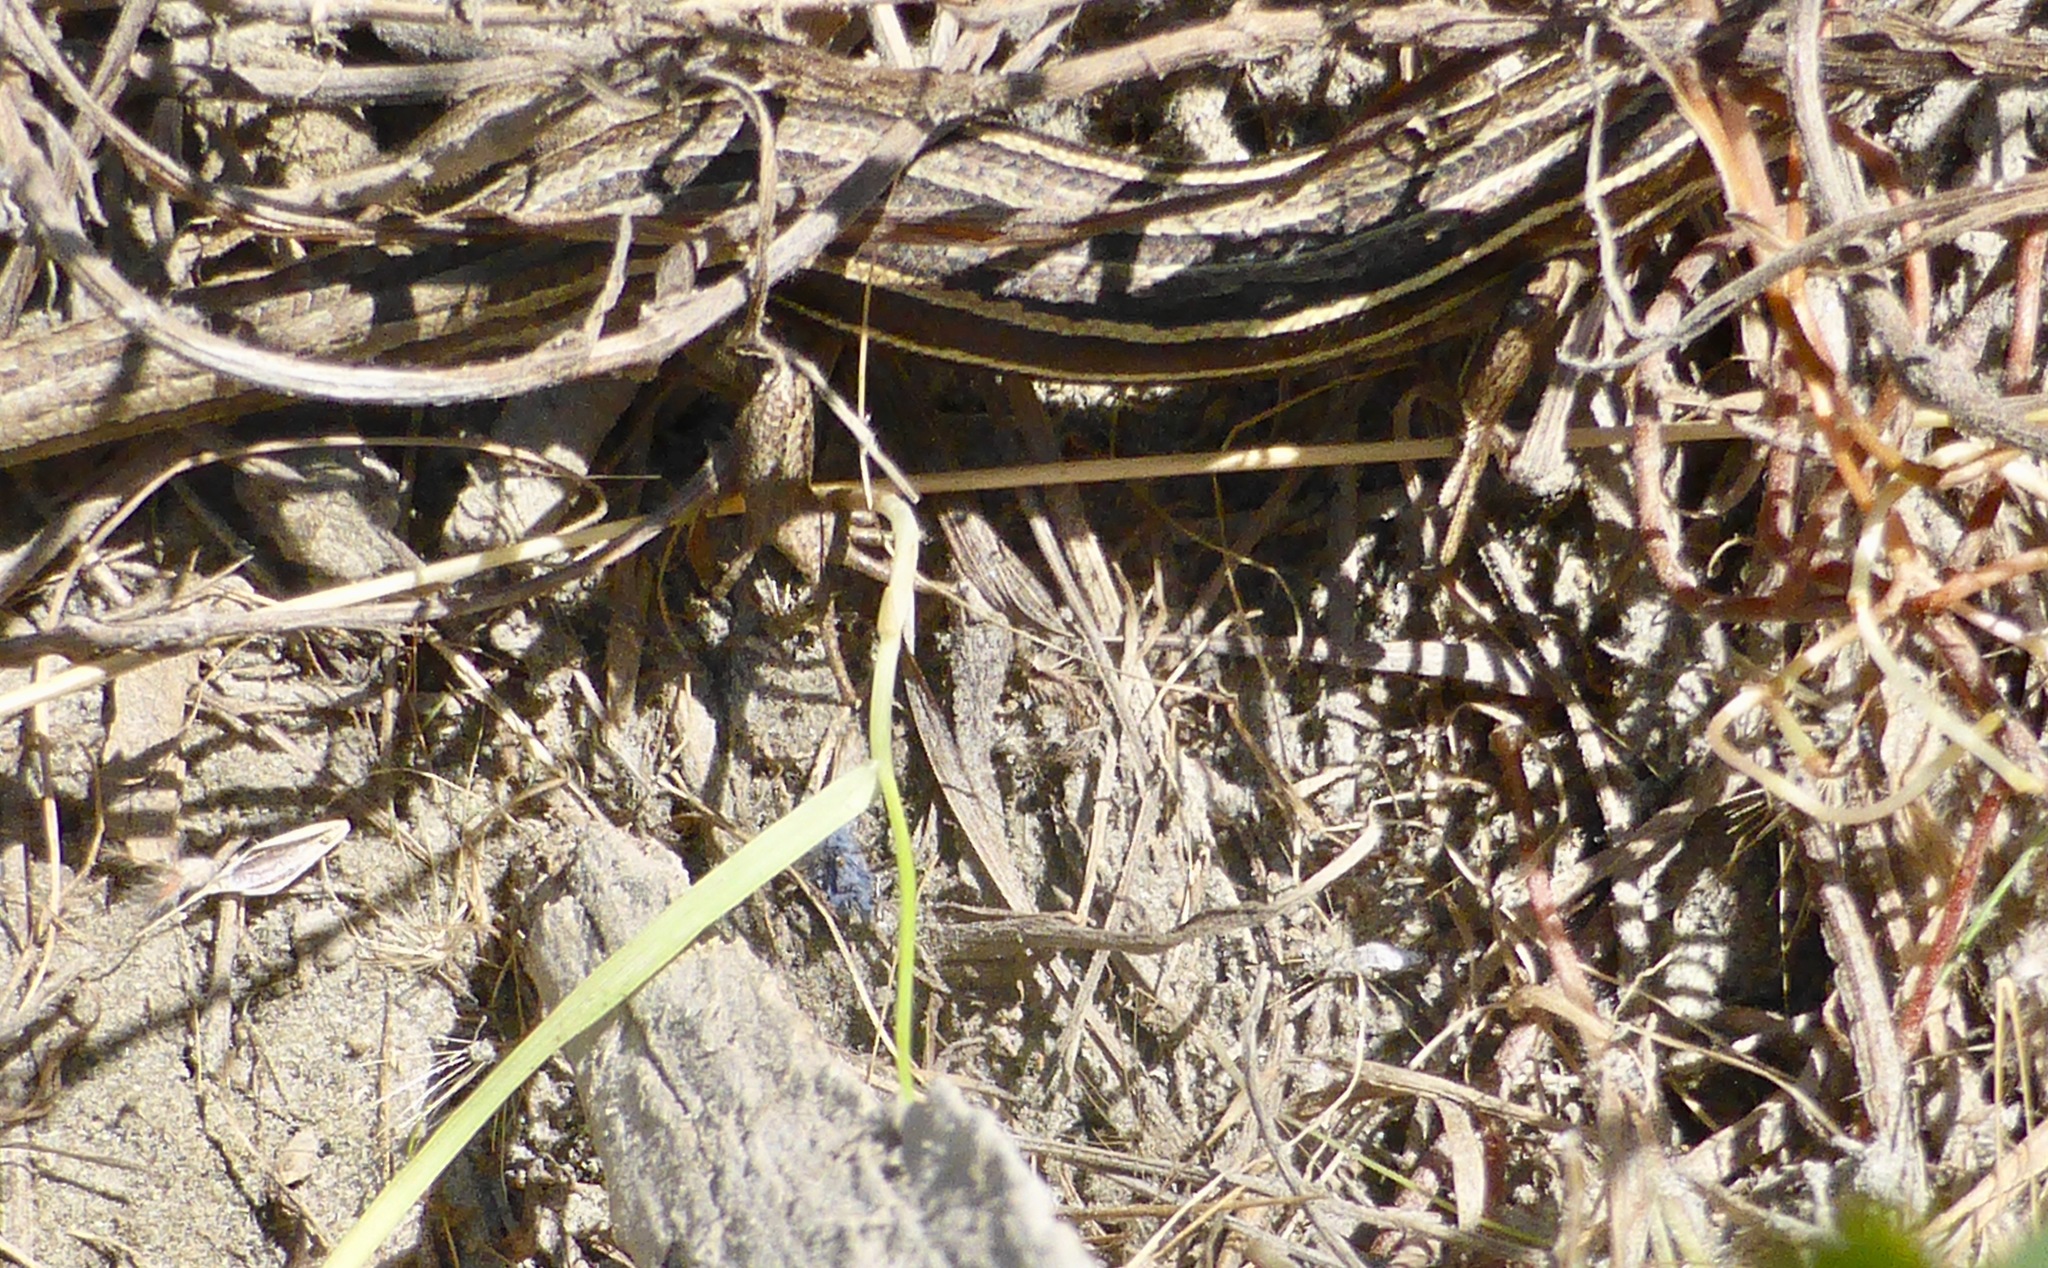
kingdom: Animalia
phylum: Chordata
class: Squamata
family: Scincidae
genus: Oligosoma
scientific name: Oligosoma maccanni
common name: Mccann’s skink
